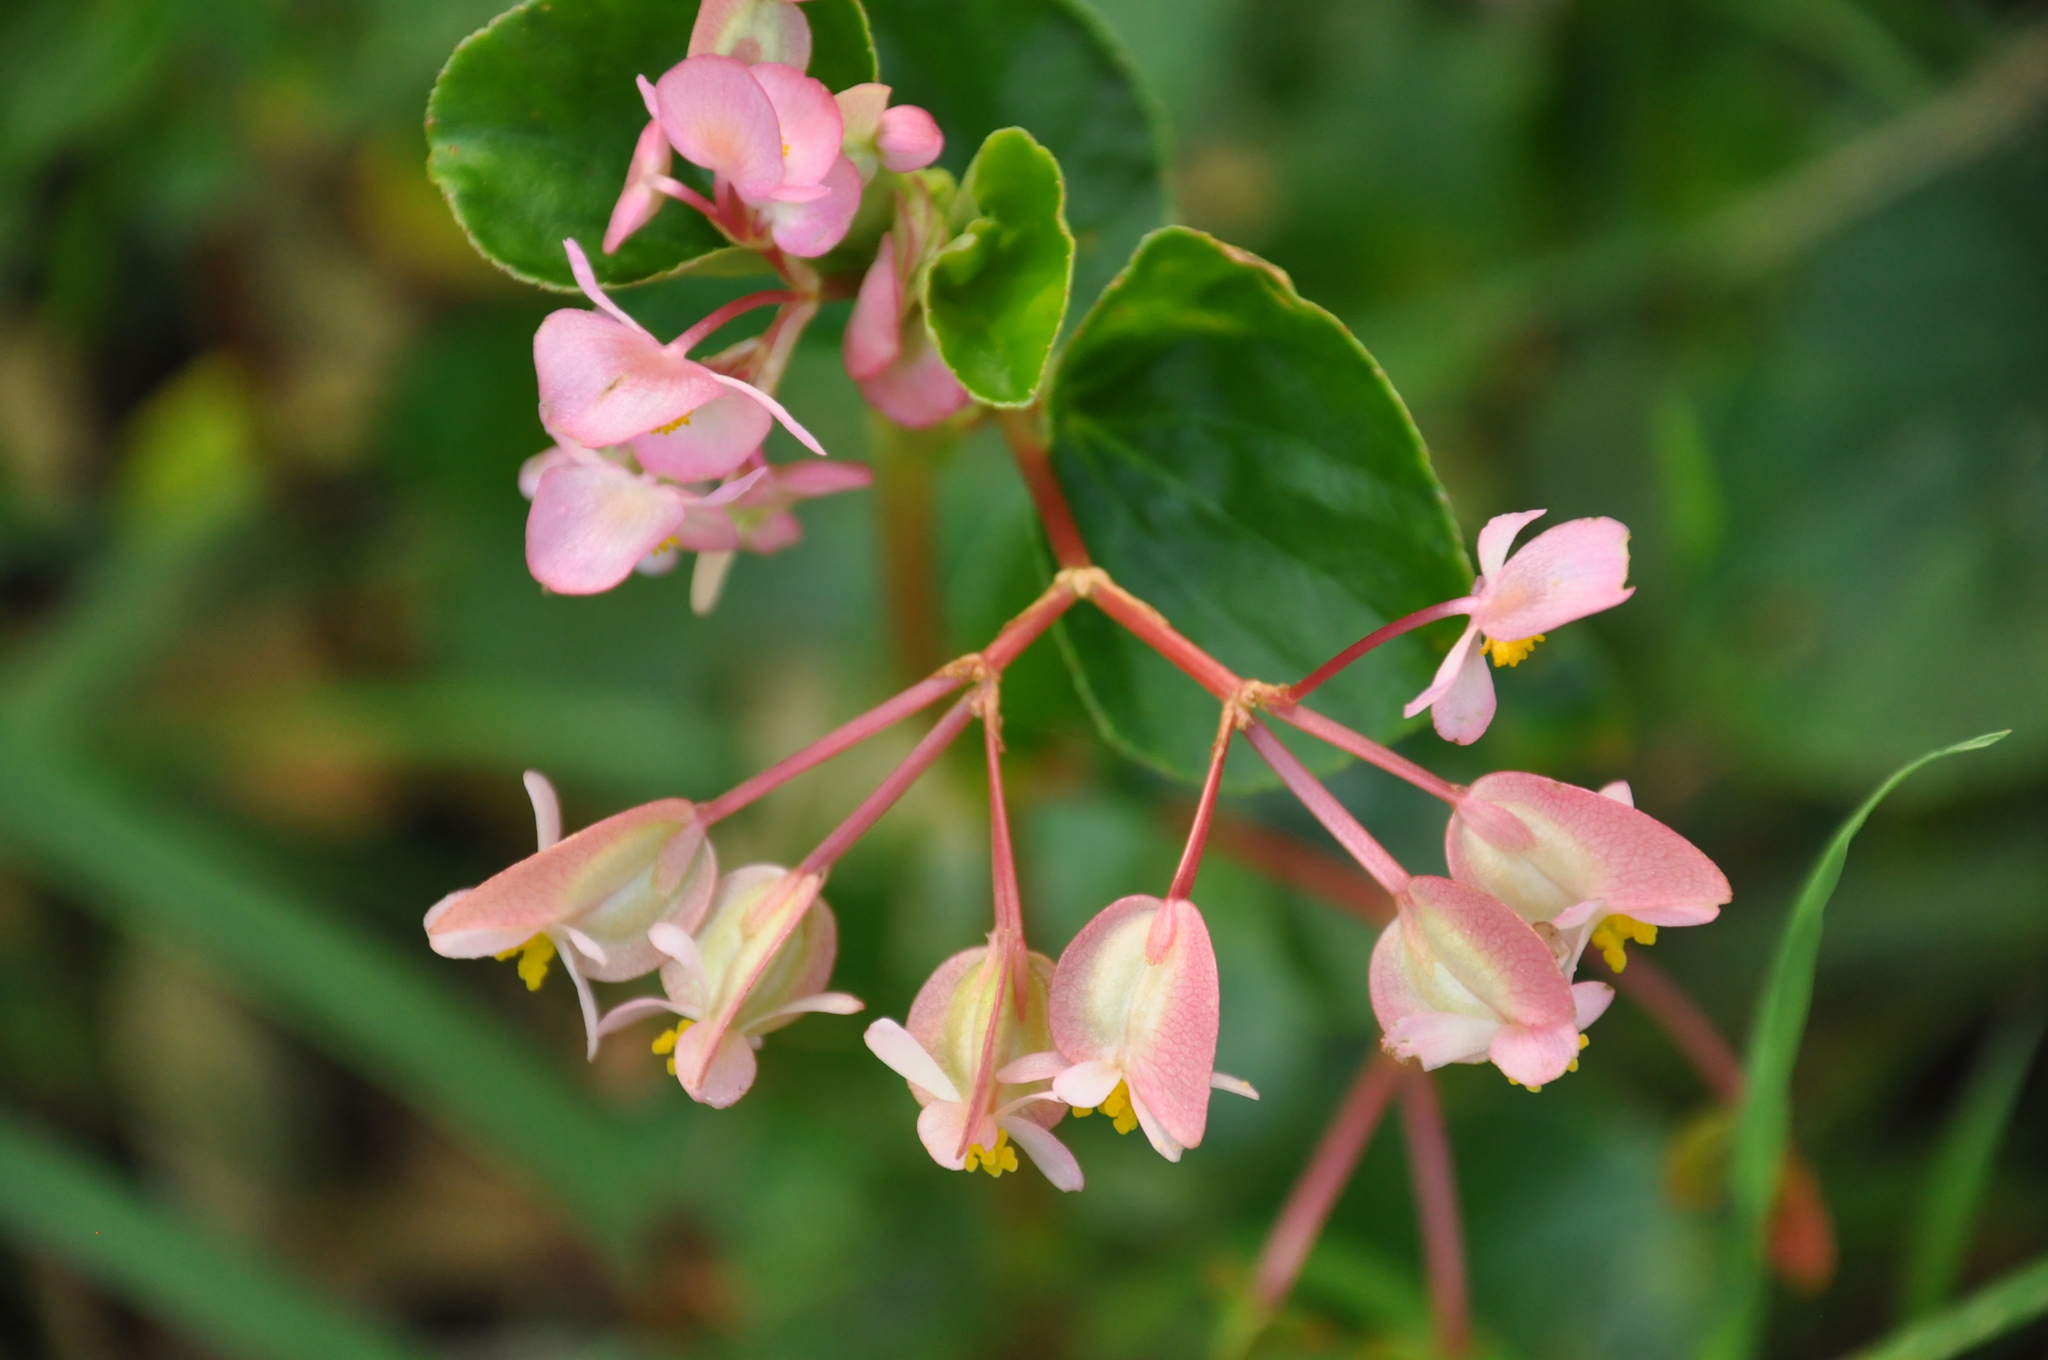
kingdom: Plantae
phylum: Tracheophyta
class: Magnoliopsida
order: Cucurbitales
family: Begoniaceae
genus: Begonia
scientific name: Begonia cucullata
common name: Clubbed begonia
